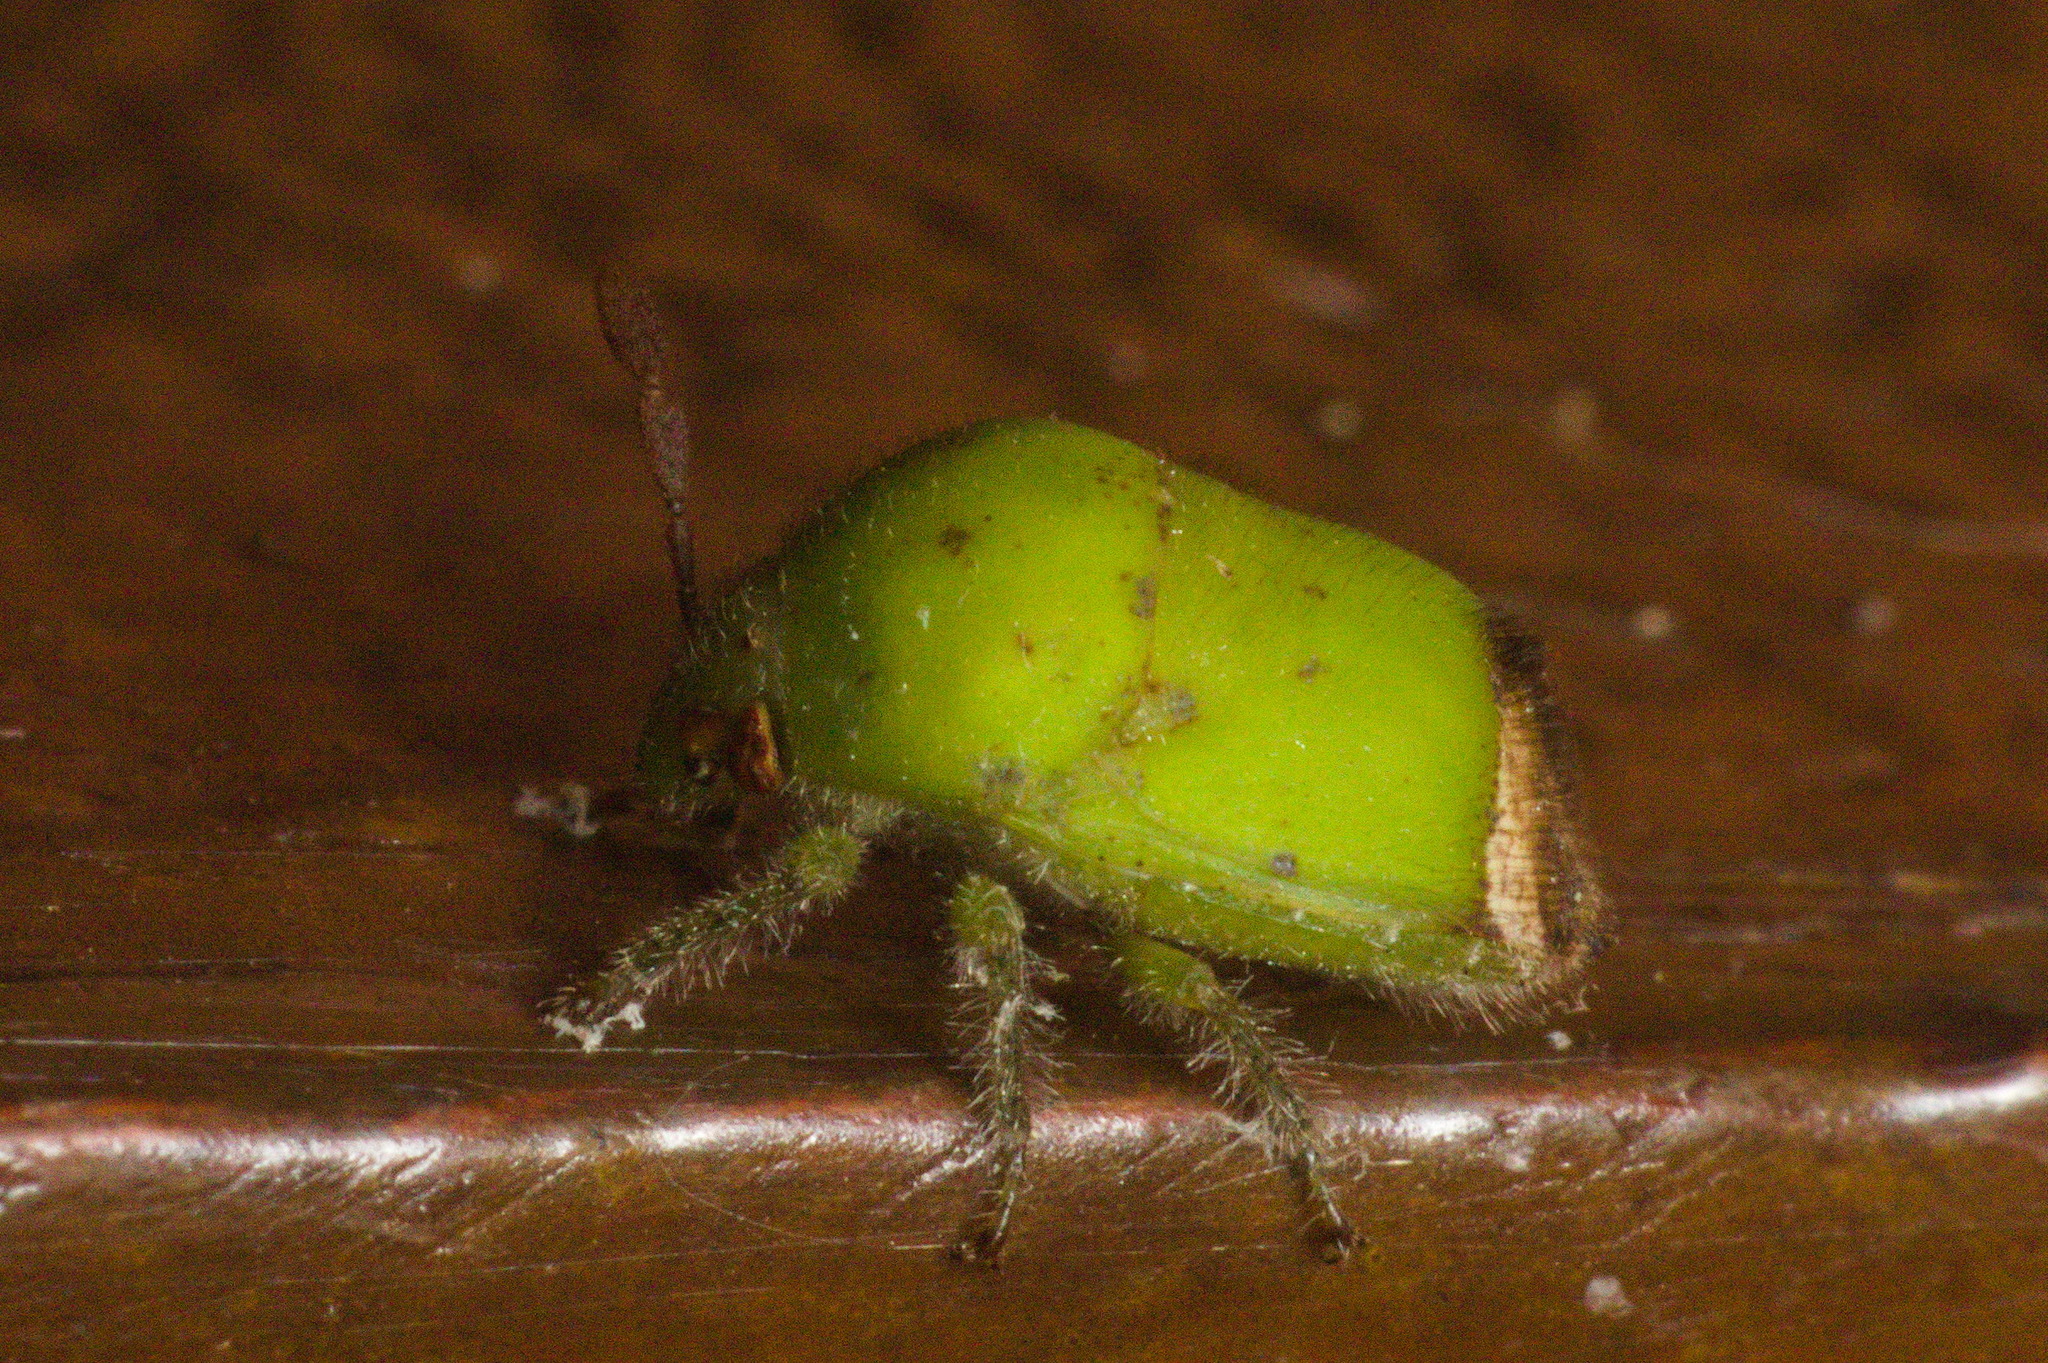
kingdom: Animalia
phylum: Arthropoda
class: Insecta
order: Hemiptera
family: Scutelleridae
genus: Dystus
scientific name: Dystus puberulus
